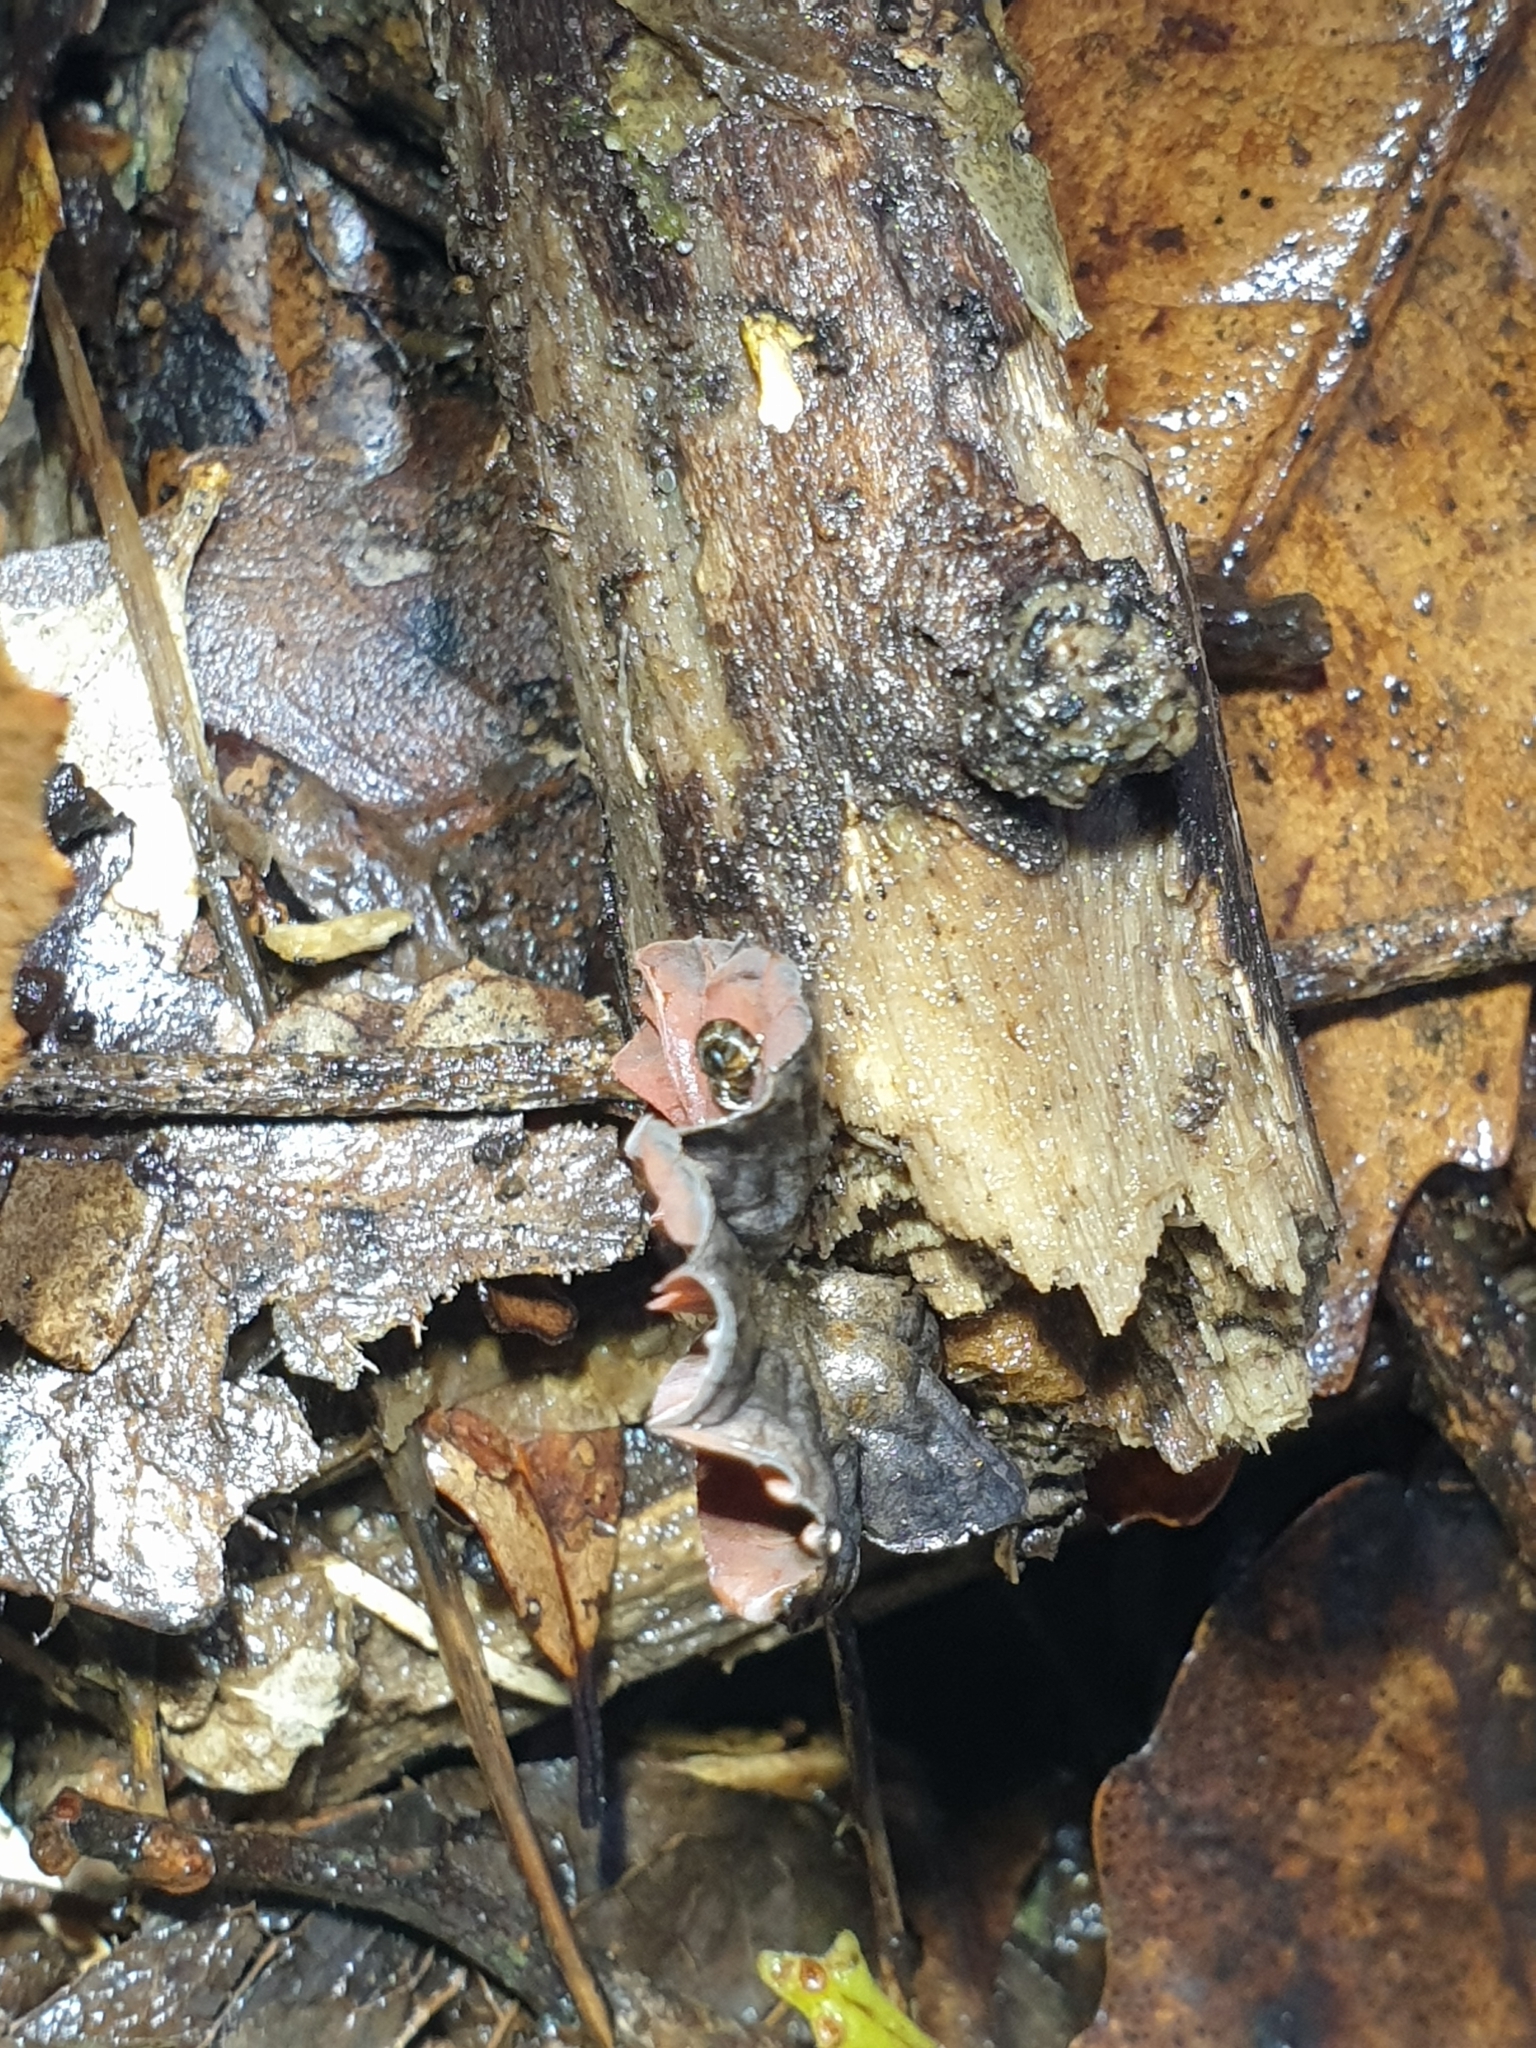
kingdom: Fungi
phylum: Basidiomycota
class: Agaricomycetes
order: Agaricales
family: Omphalotaceae
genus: Anthracophyllum
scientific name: Anthracophyllum archeri
